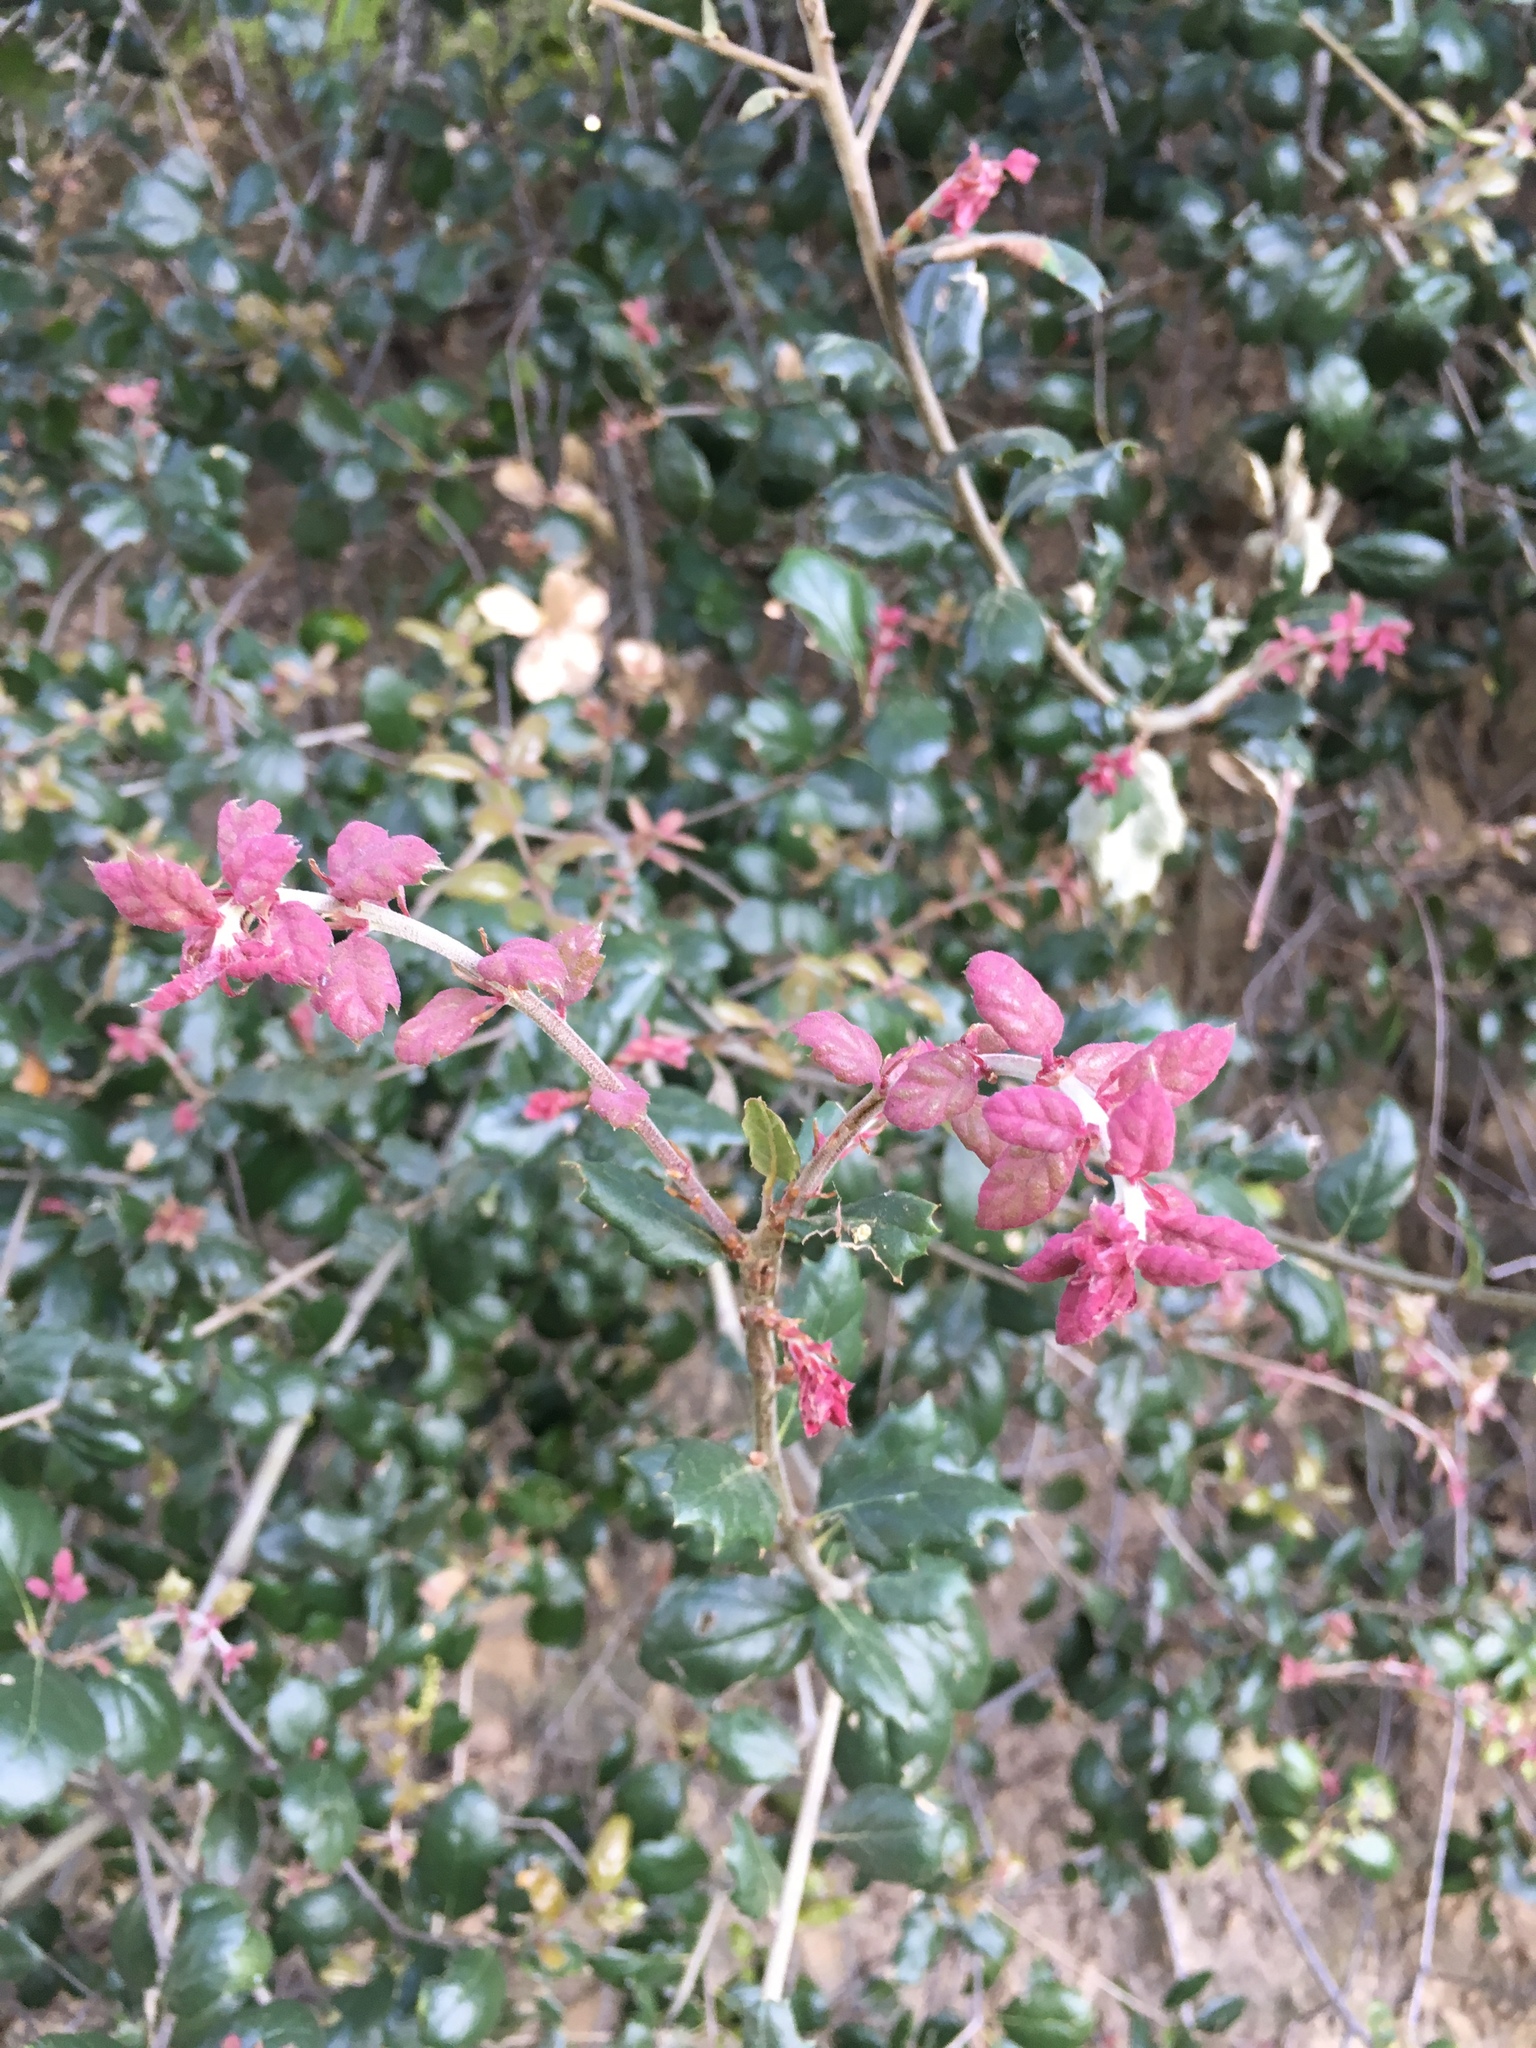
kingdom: Plantae
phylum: Tracheophyta
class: Magnoliopsida
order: Fagales
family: Fagaceae
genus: Quercus
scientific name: Quercus agrifolia
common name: California live oak
